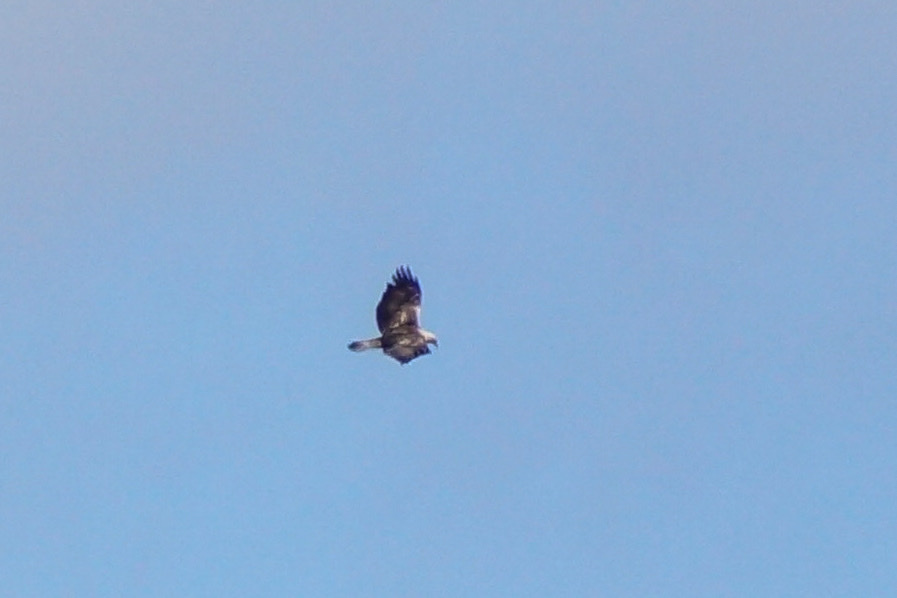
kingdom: Animalia
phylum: Chordata
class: Aves
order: Accipitriformes
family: Accipitridae
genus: Aquila
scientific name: Aquila chrysaetos
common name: Golden eagle
